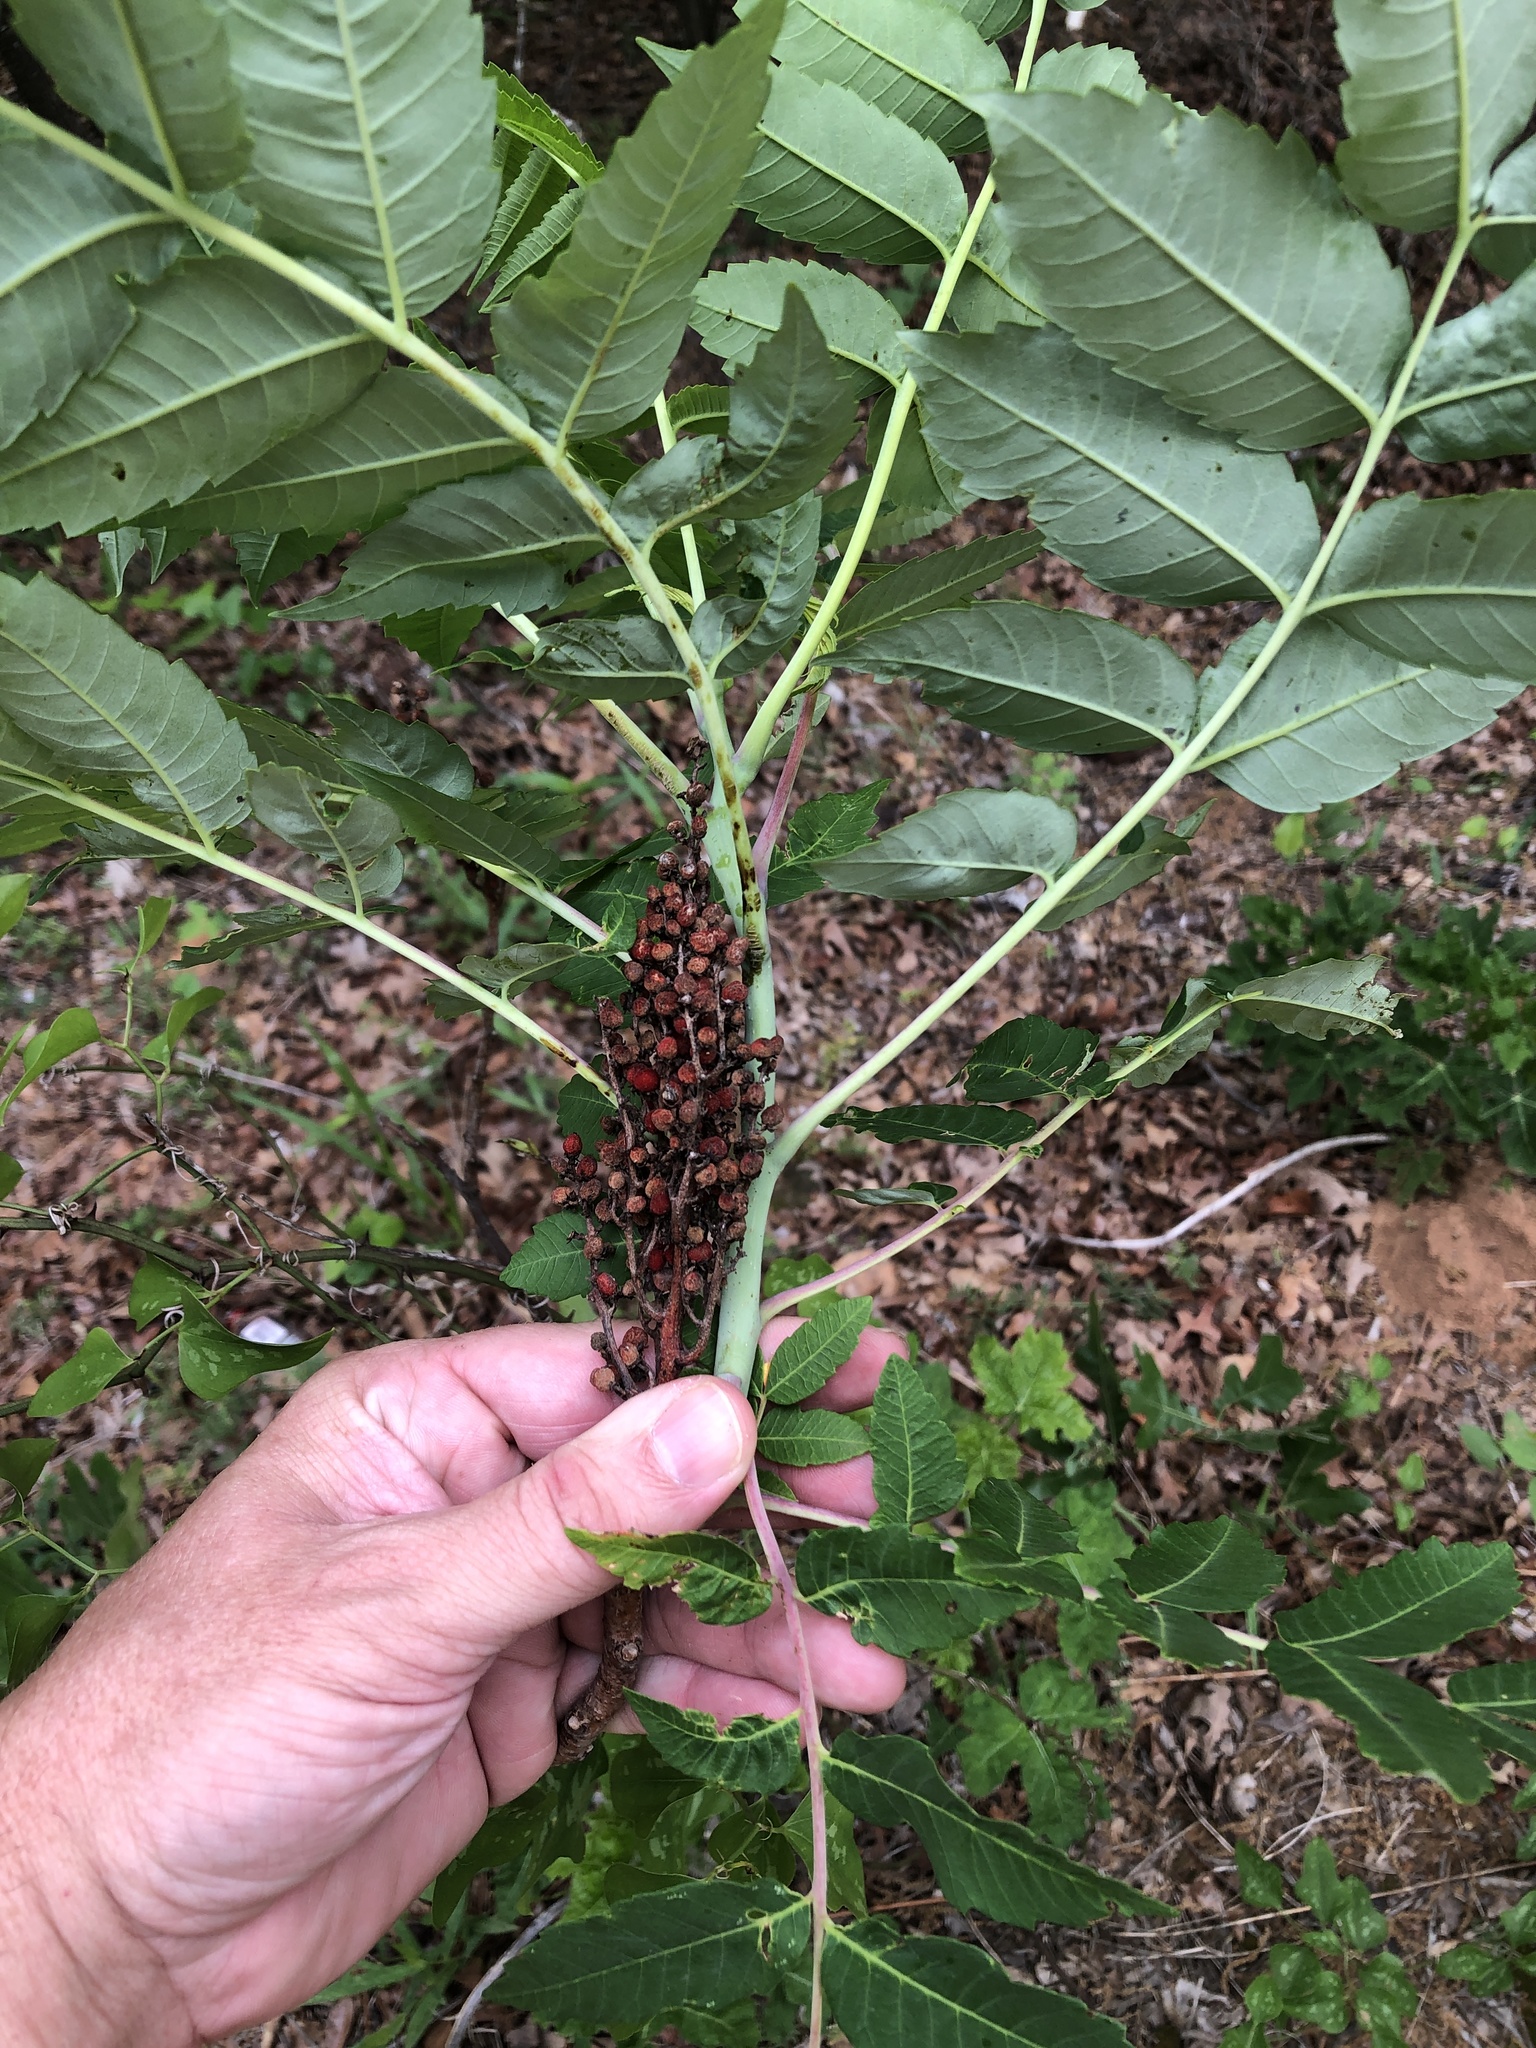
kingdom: Plantae
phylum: Tracheophyta
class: Magnoliopsida
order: Sapindales
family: Anacardiaceae
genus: Rhus
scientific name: Rhus glabra
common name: Scarlet sumac
